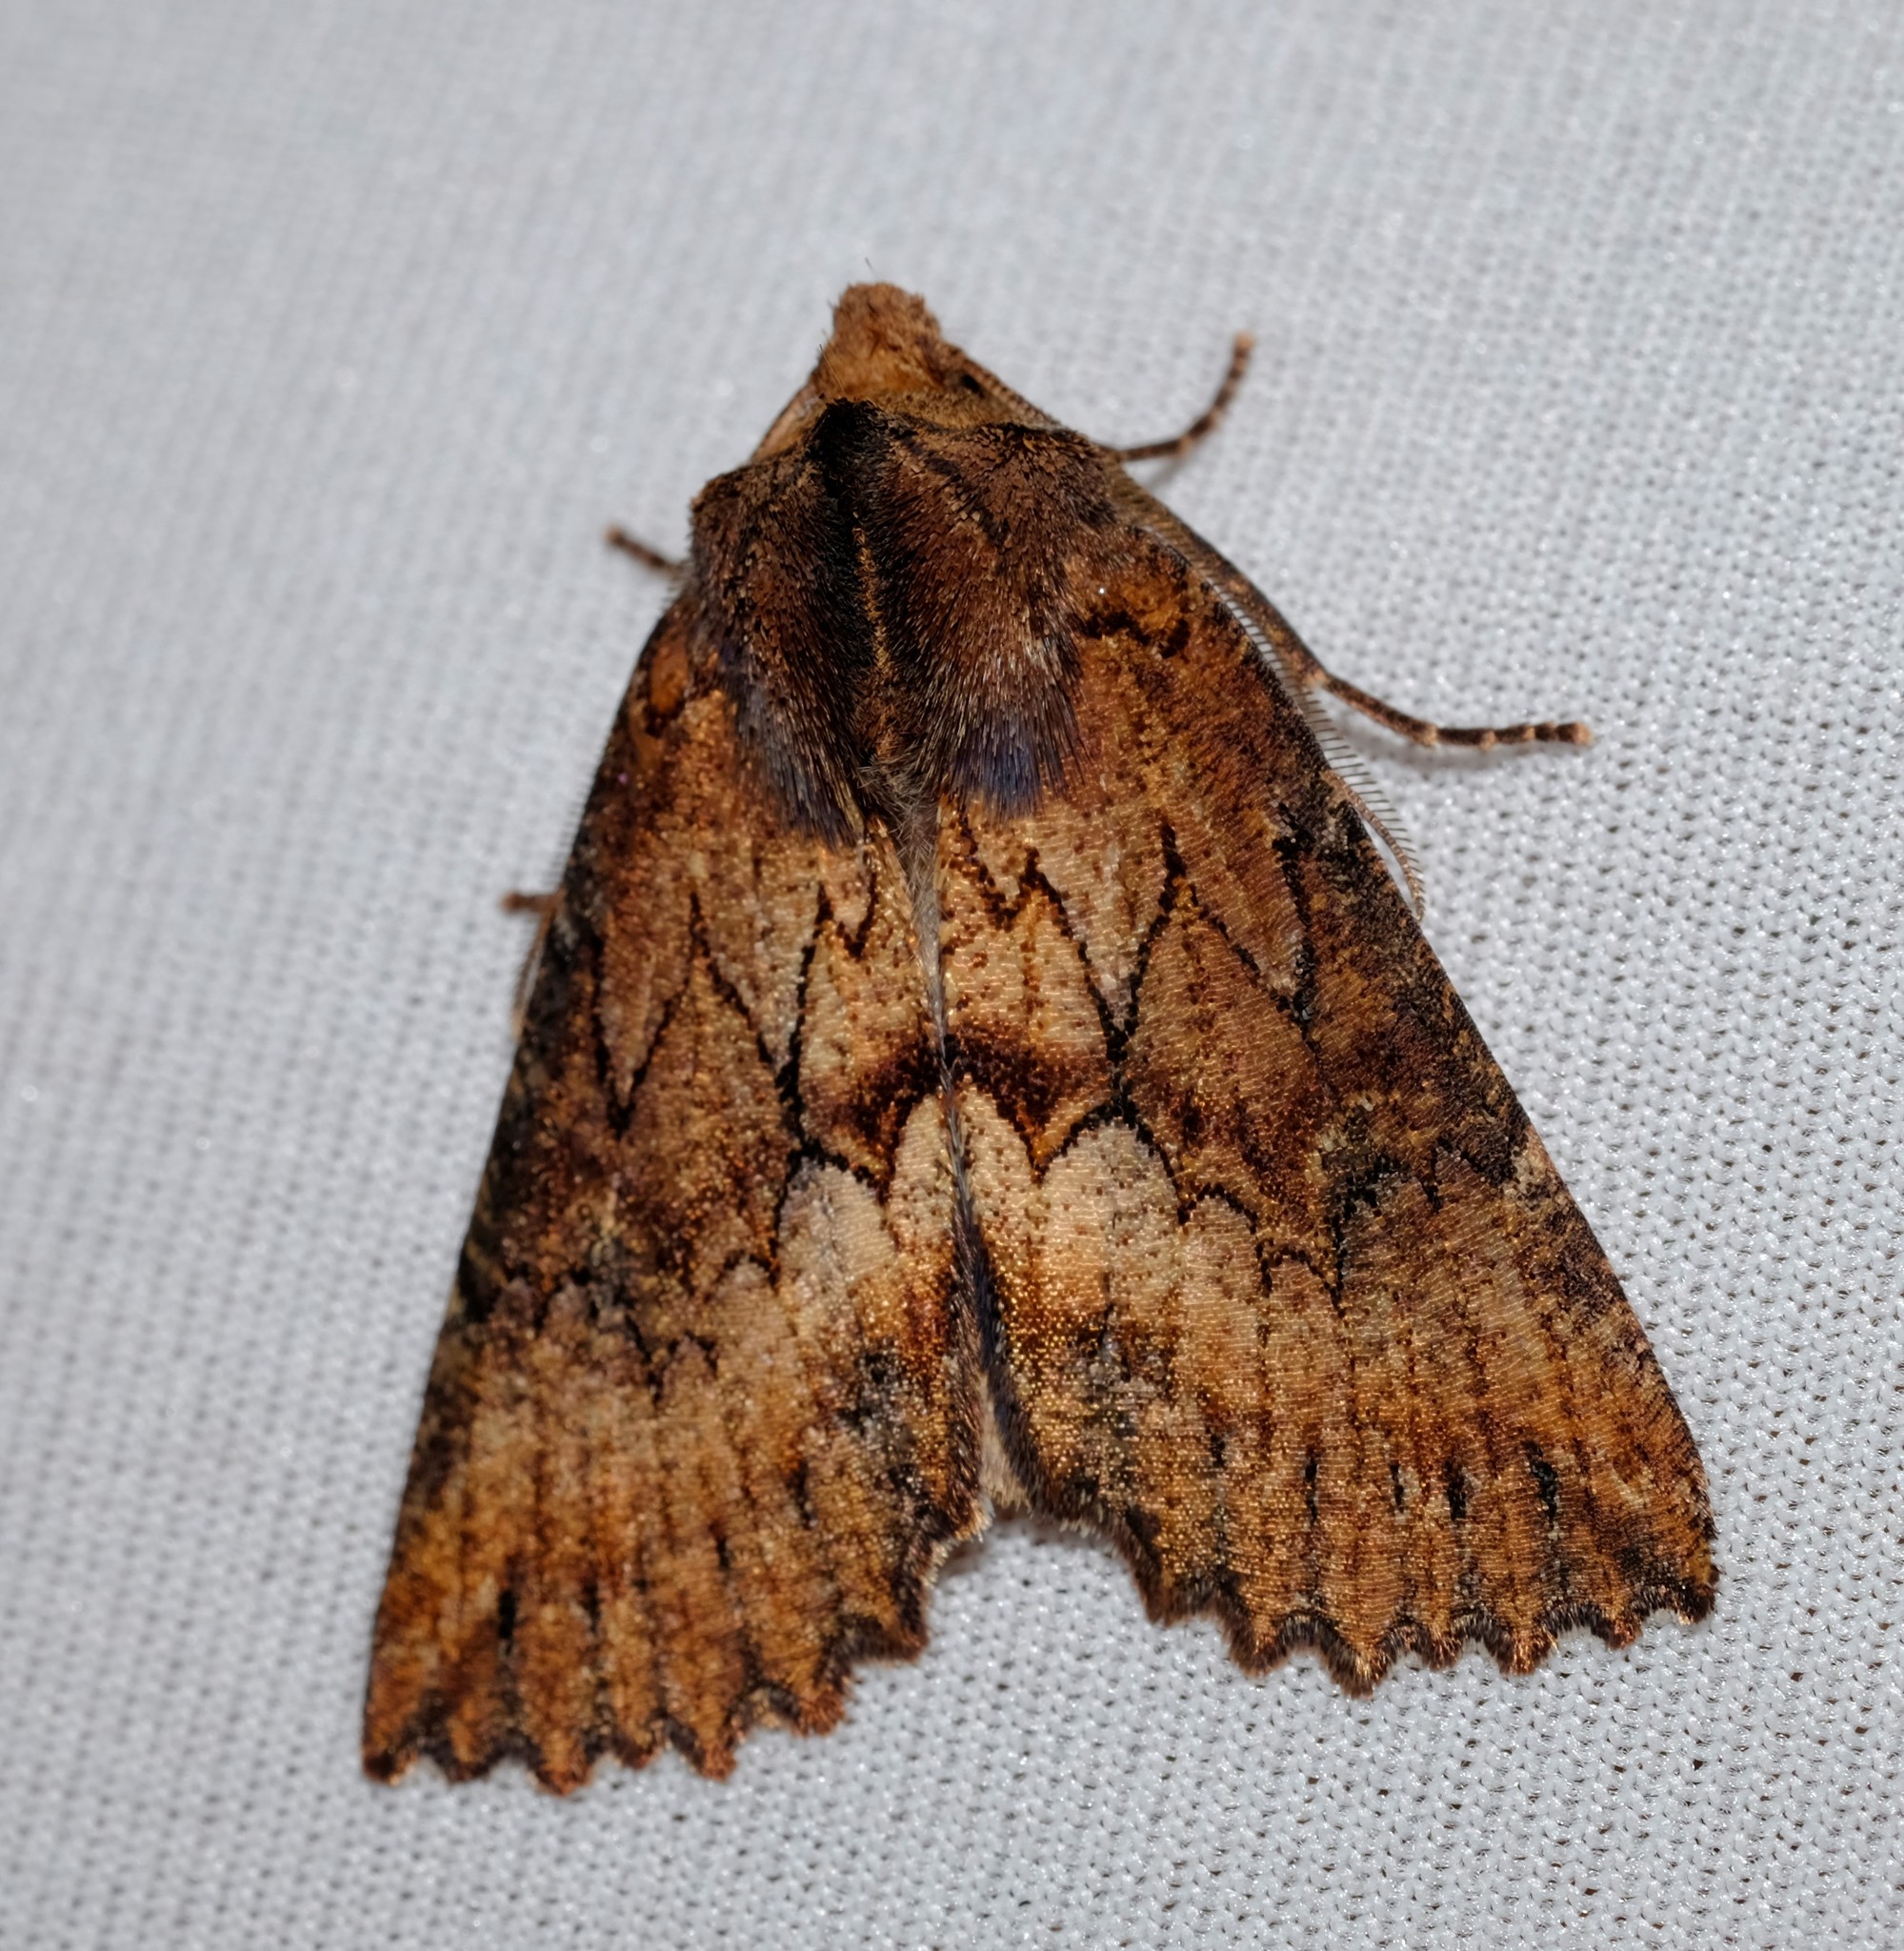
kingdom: Animalia
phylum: Arthropoda
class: Insecta
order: Lepidoptera
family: Geometridae
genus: Nisista
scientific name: Nisista serrata
